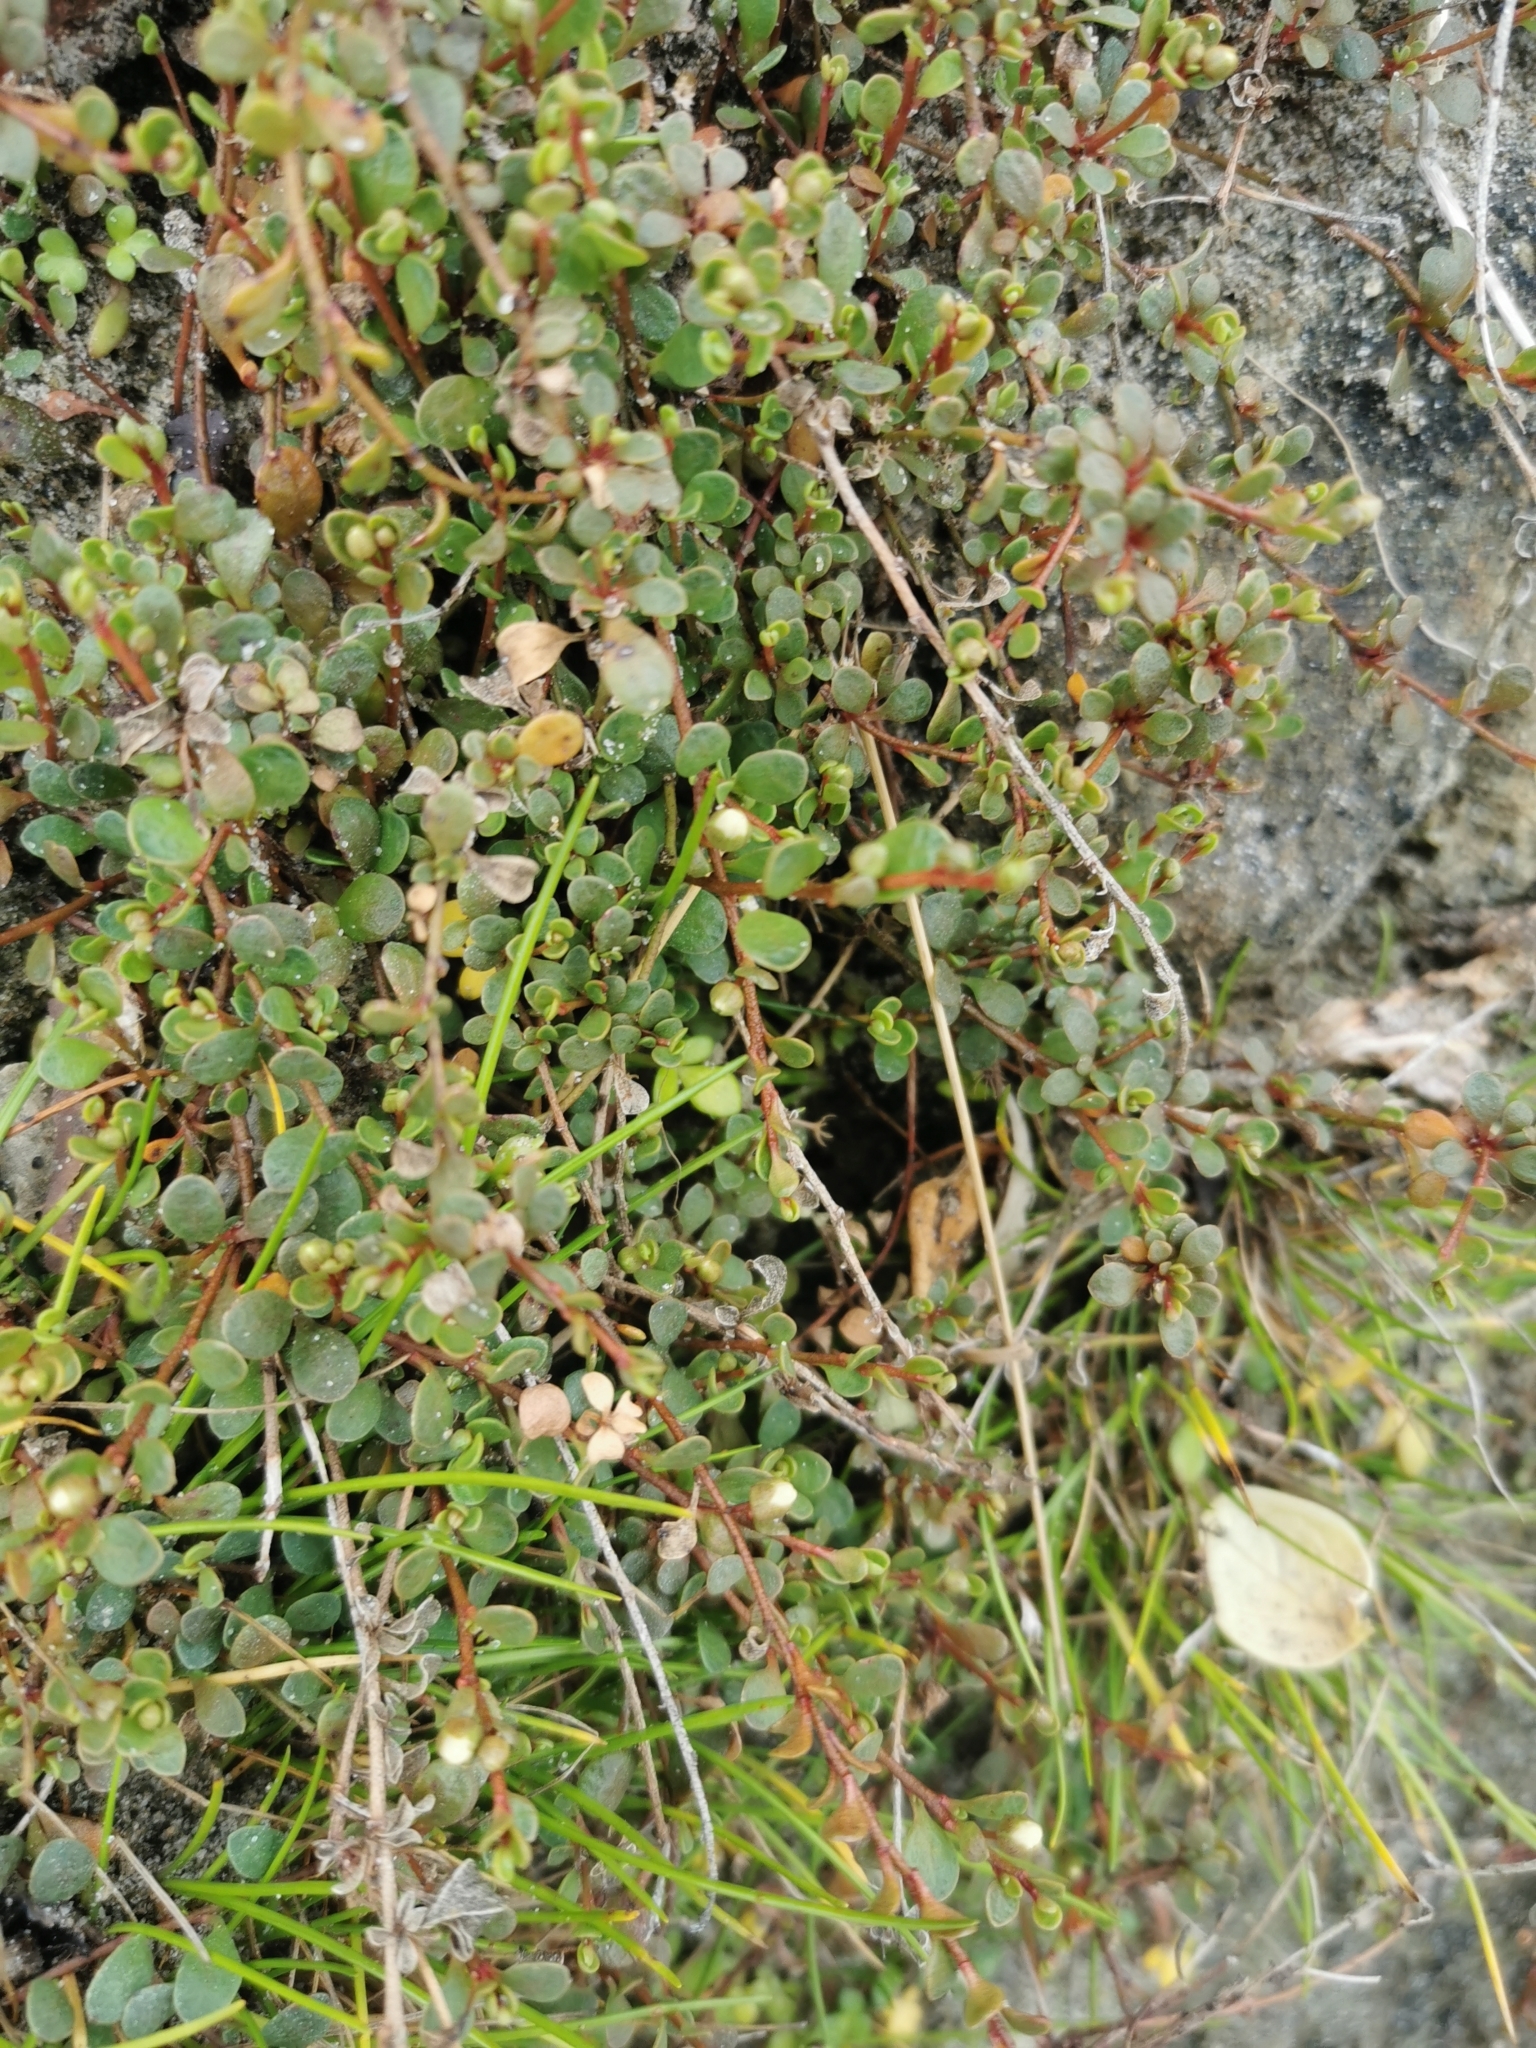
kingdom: Plantae
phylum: Tracheophyta
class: Magnoliopsida
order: Ericales
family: Primulaceae
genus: Samolus
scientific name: Samolus repens
